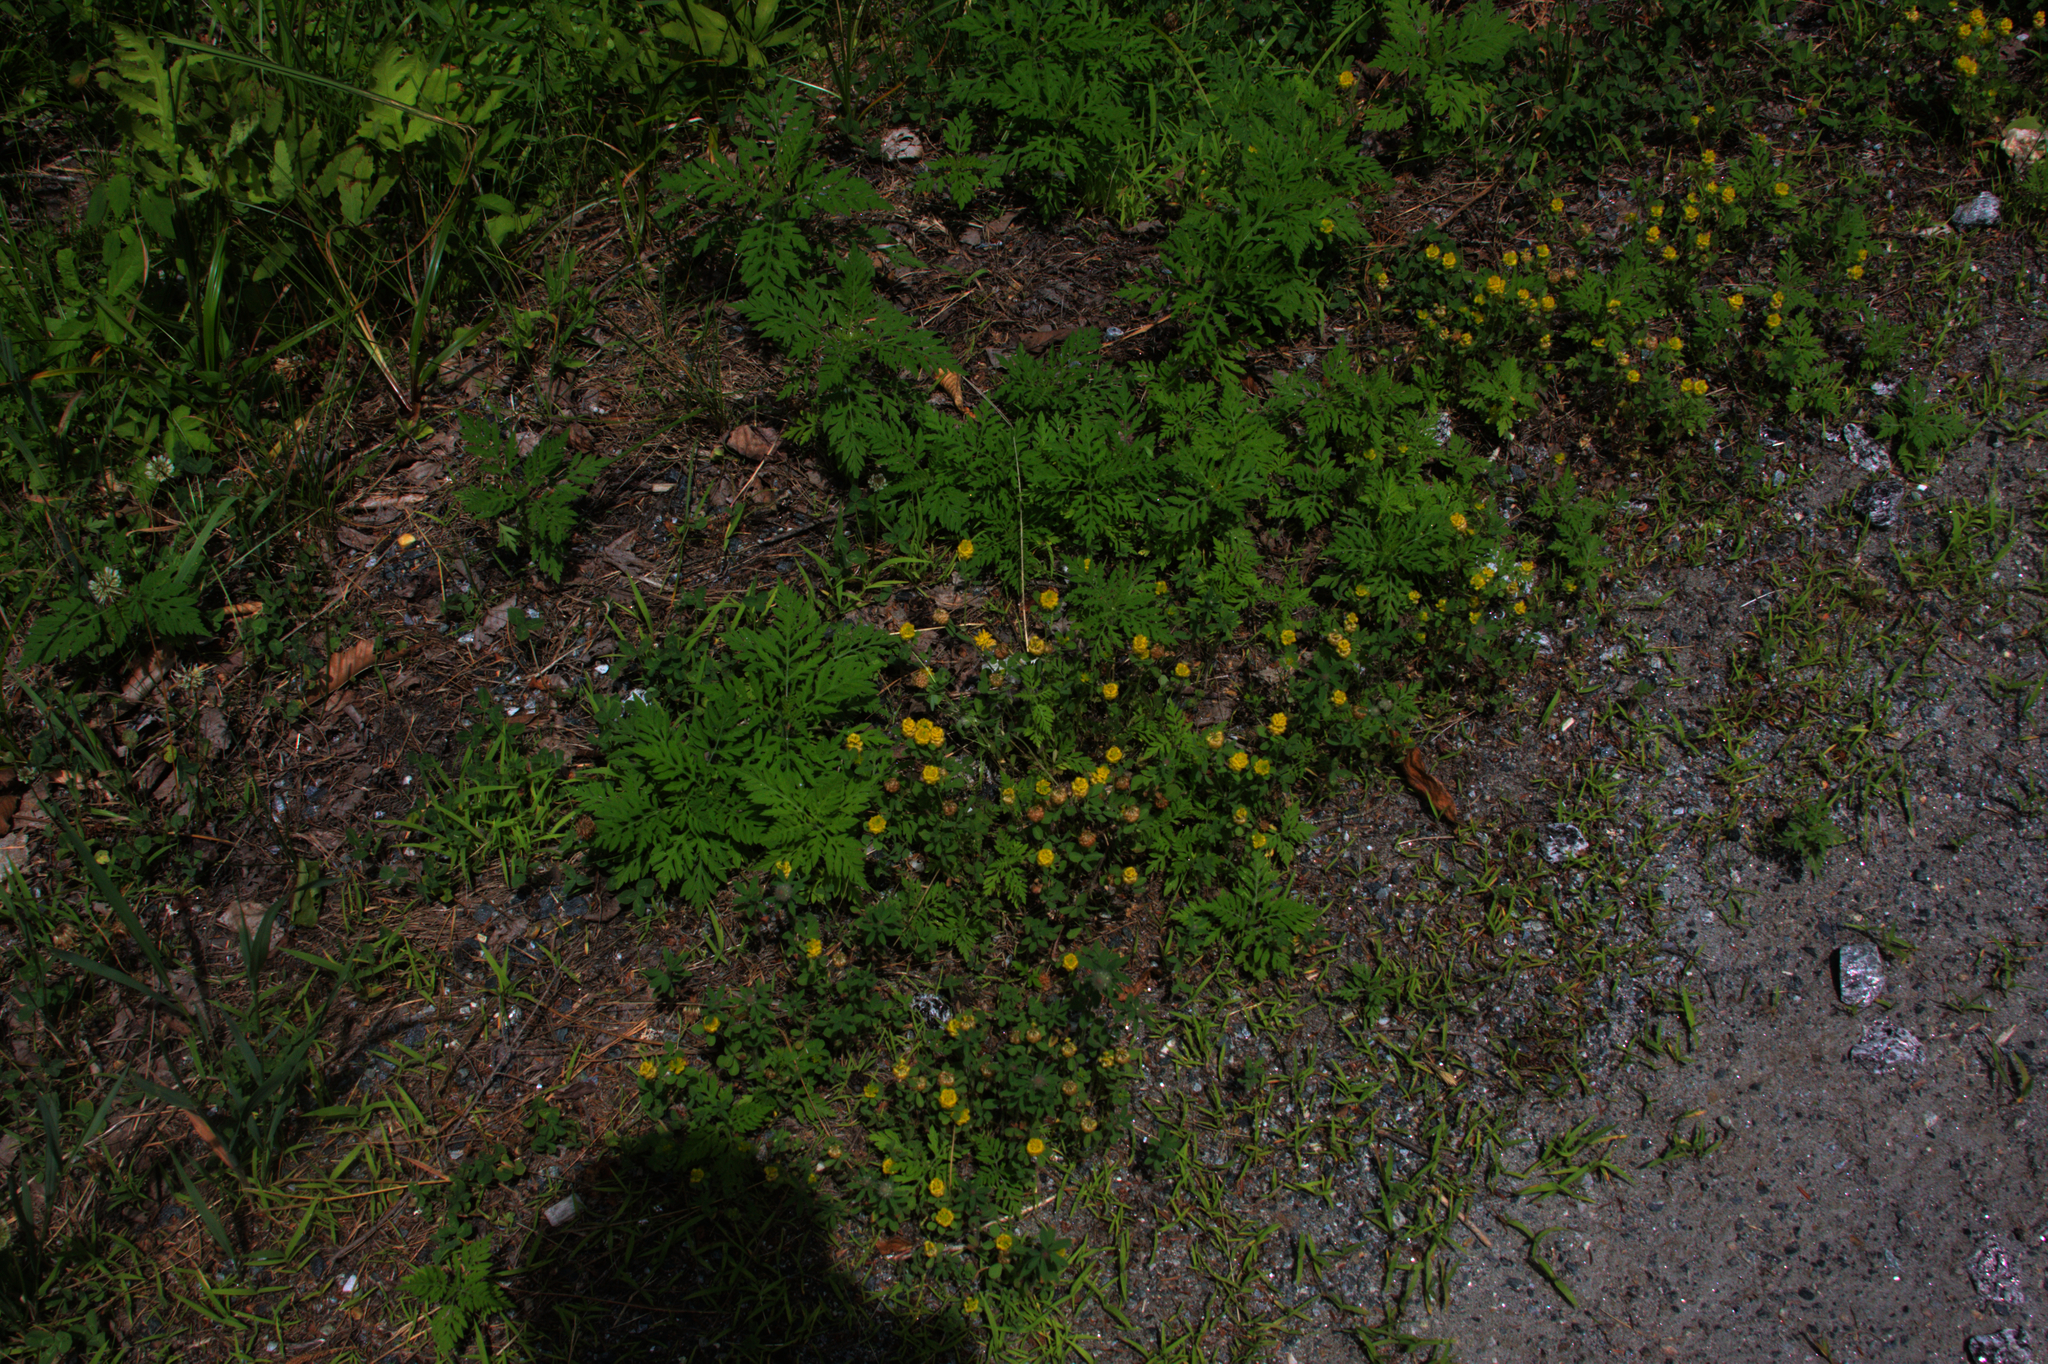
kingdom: Plantae
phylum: Tracheophyta
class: Magnoliopsida
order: Fabales
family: Fabaceae
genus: Trifolium
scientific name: Trifolium campestre
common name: Field clover
